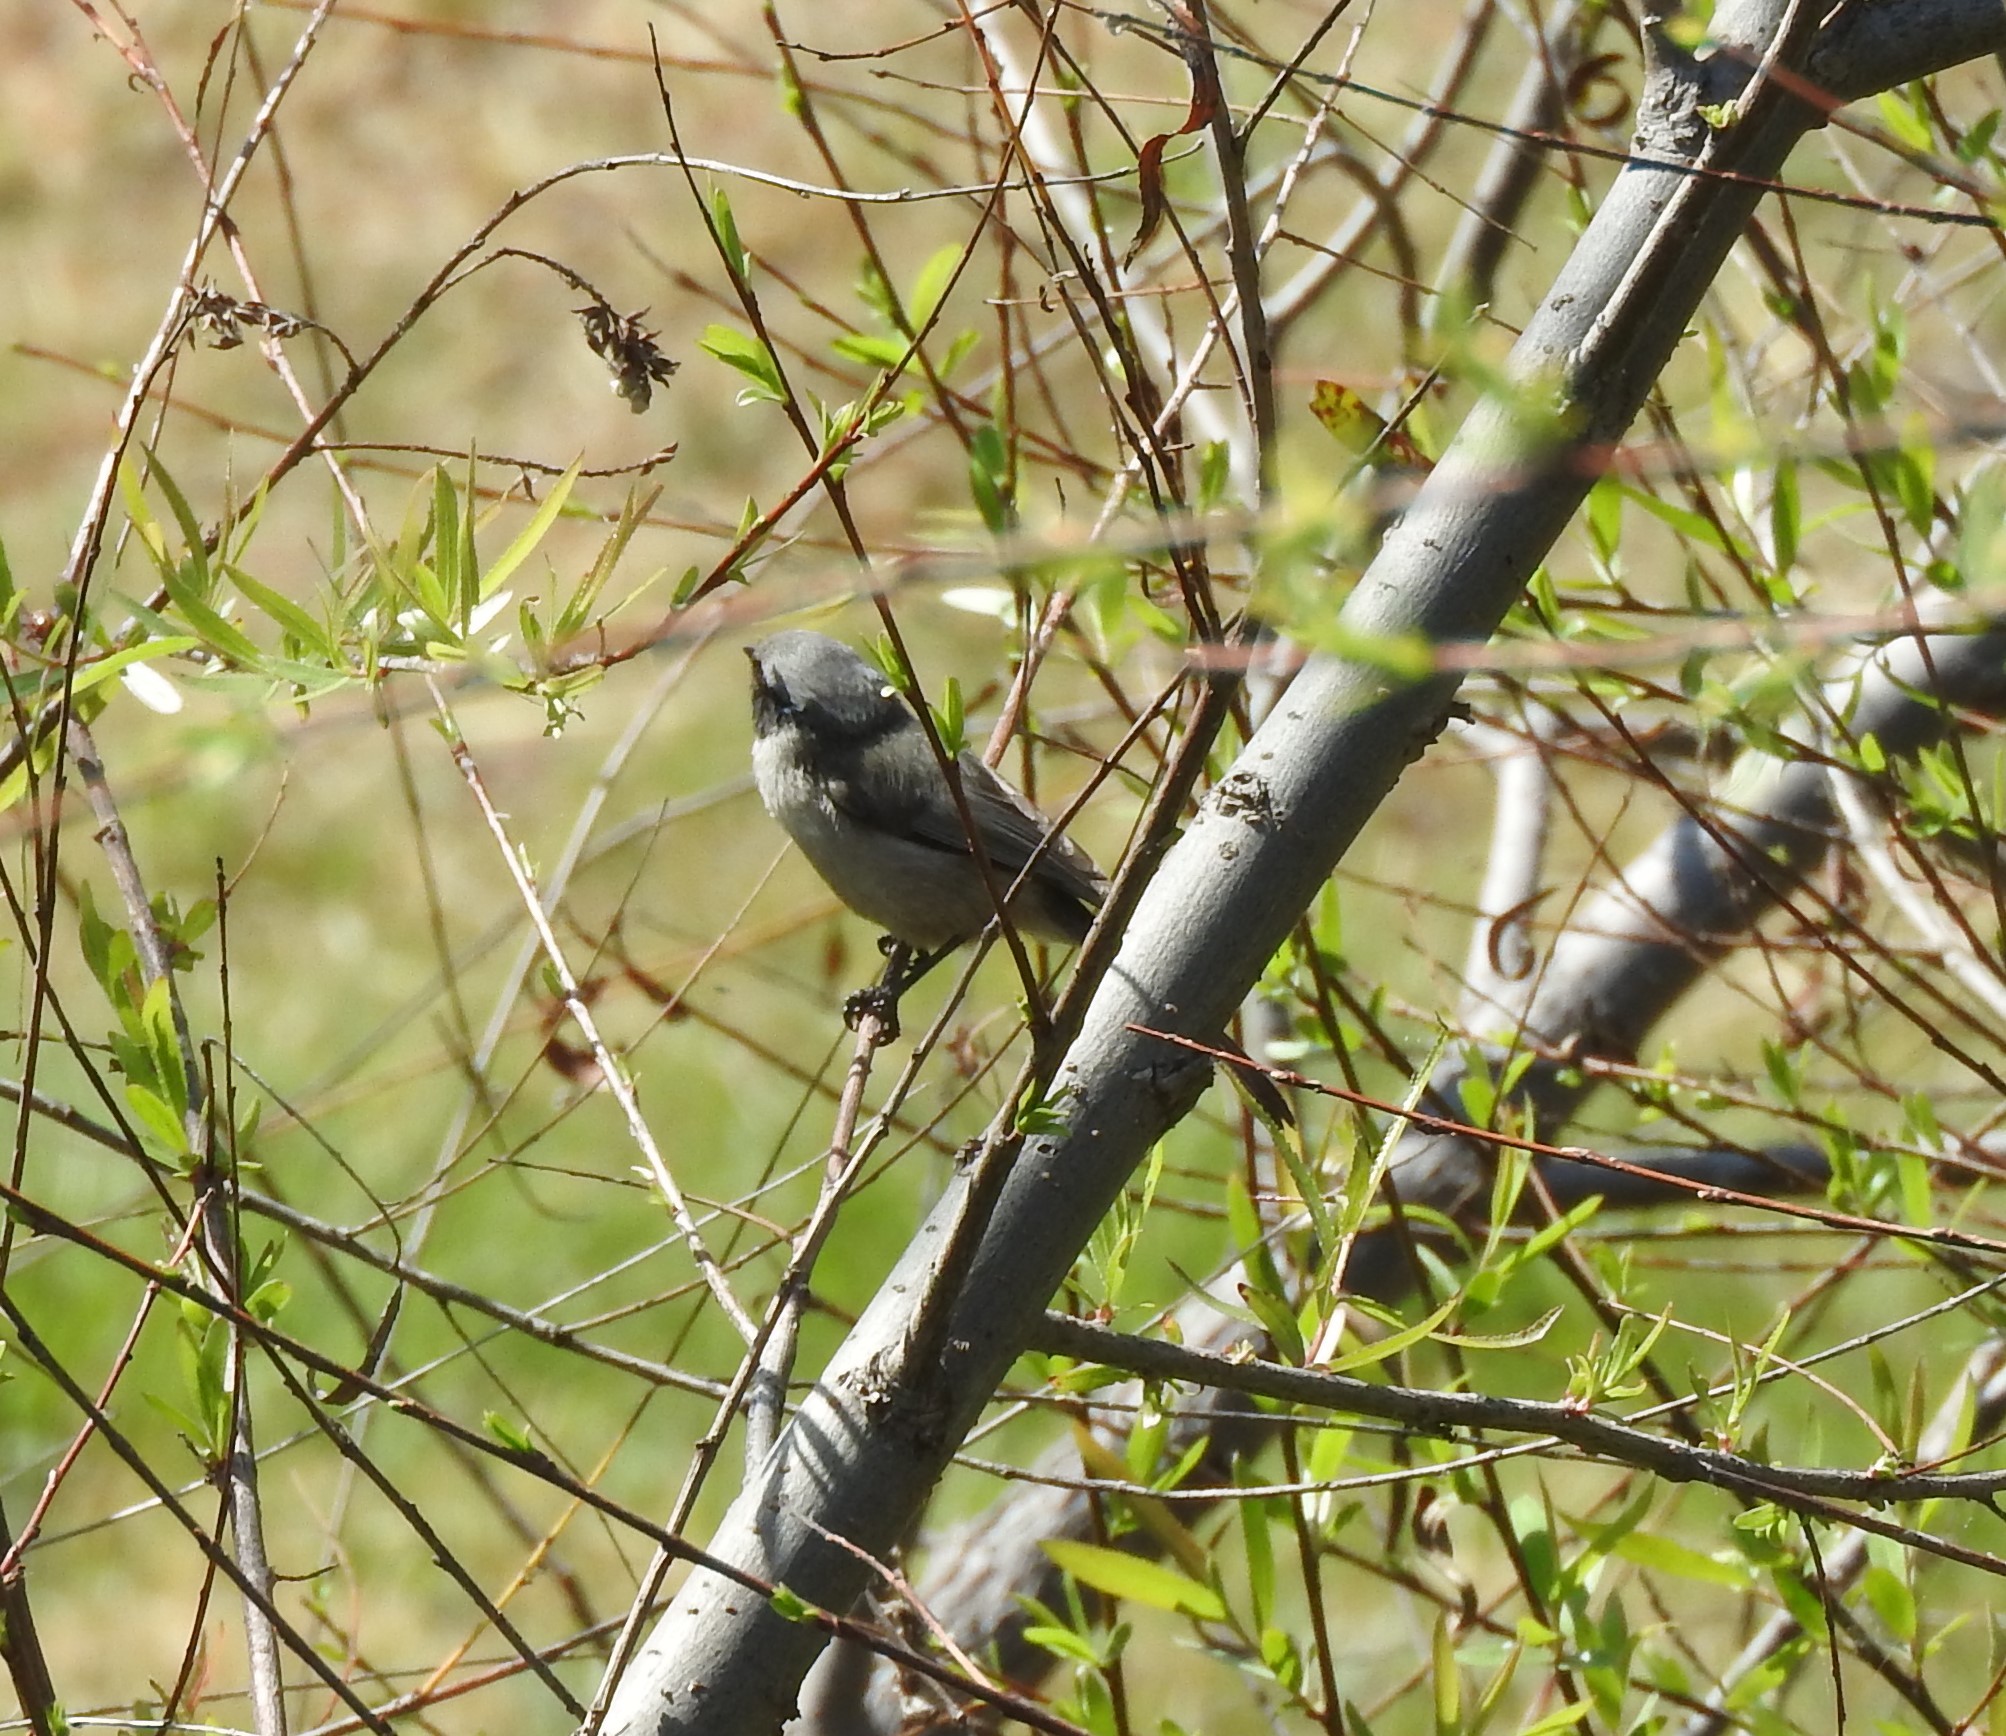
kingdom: Animalia
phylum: Chordata
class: Aves
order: Passeriformes
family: Aegithalidae
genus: Psaltriparus
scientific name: Psaltriparus minimus
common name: American bushtit
